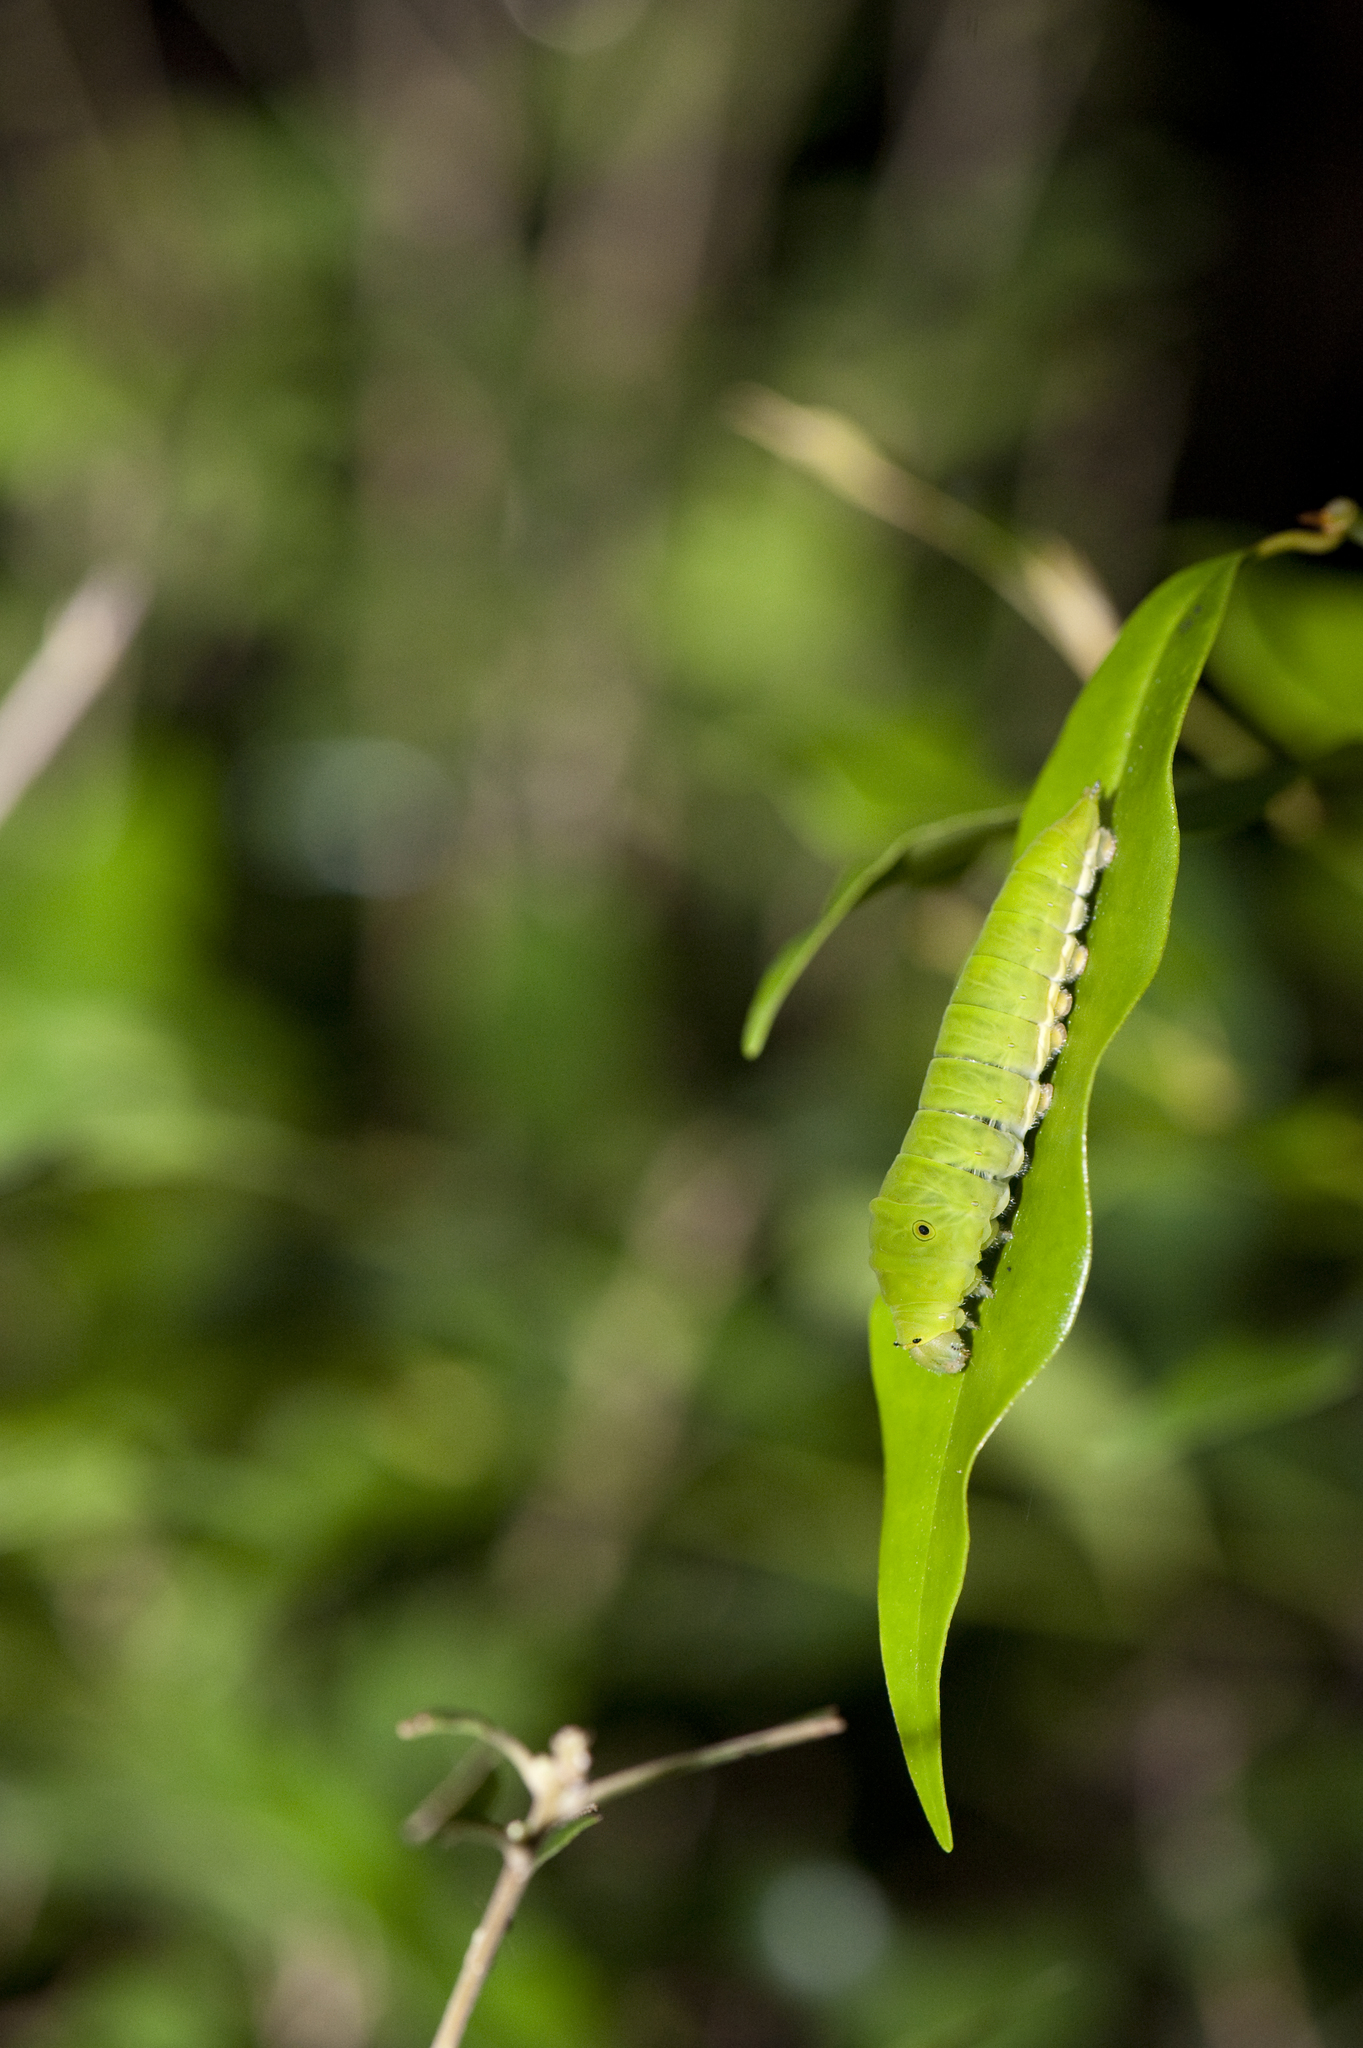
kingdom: Animalia
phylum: Arthropoda
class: Insecta
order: Lepidoptera
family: Papilionidae
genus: Graphium
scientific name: Graphium doson
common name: Common jay
